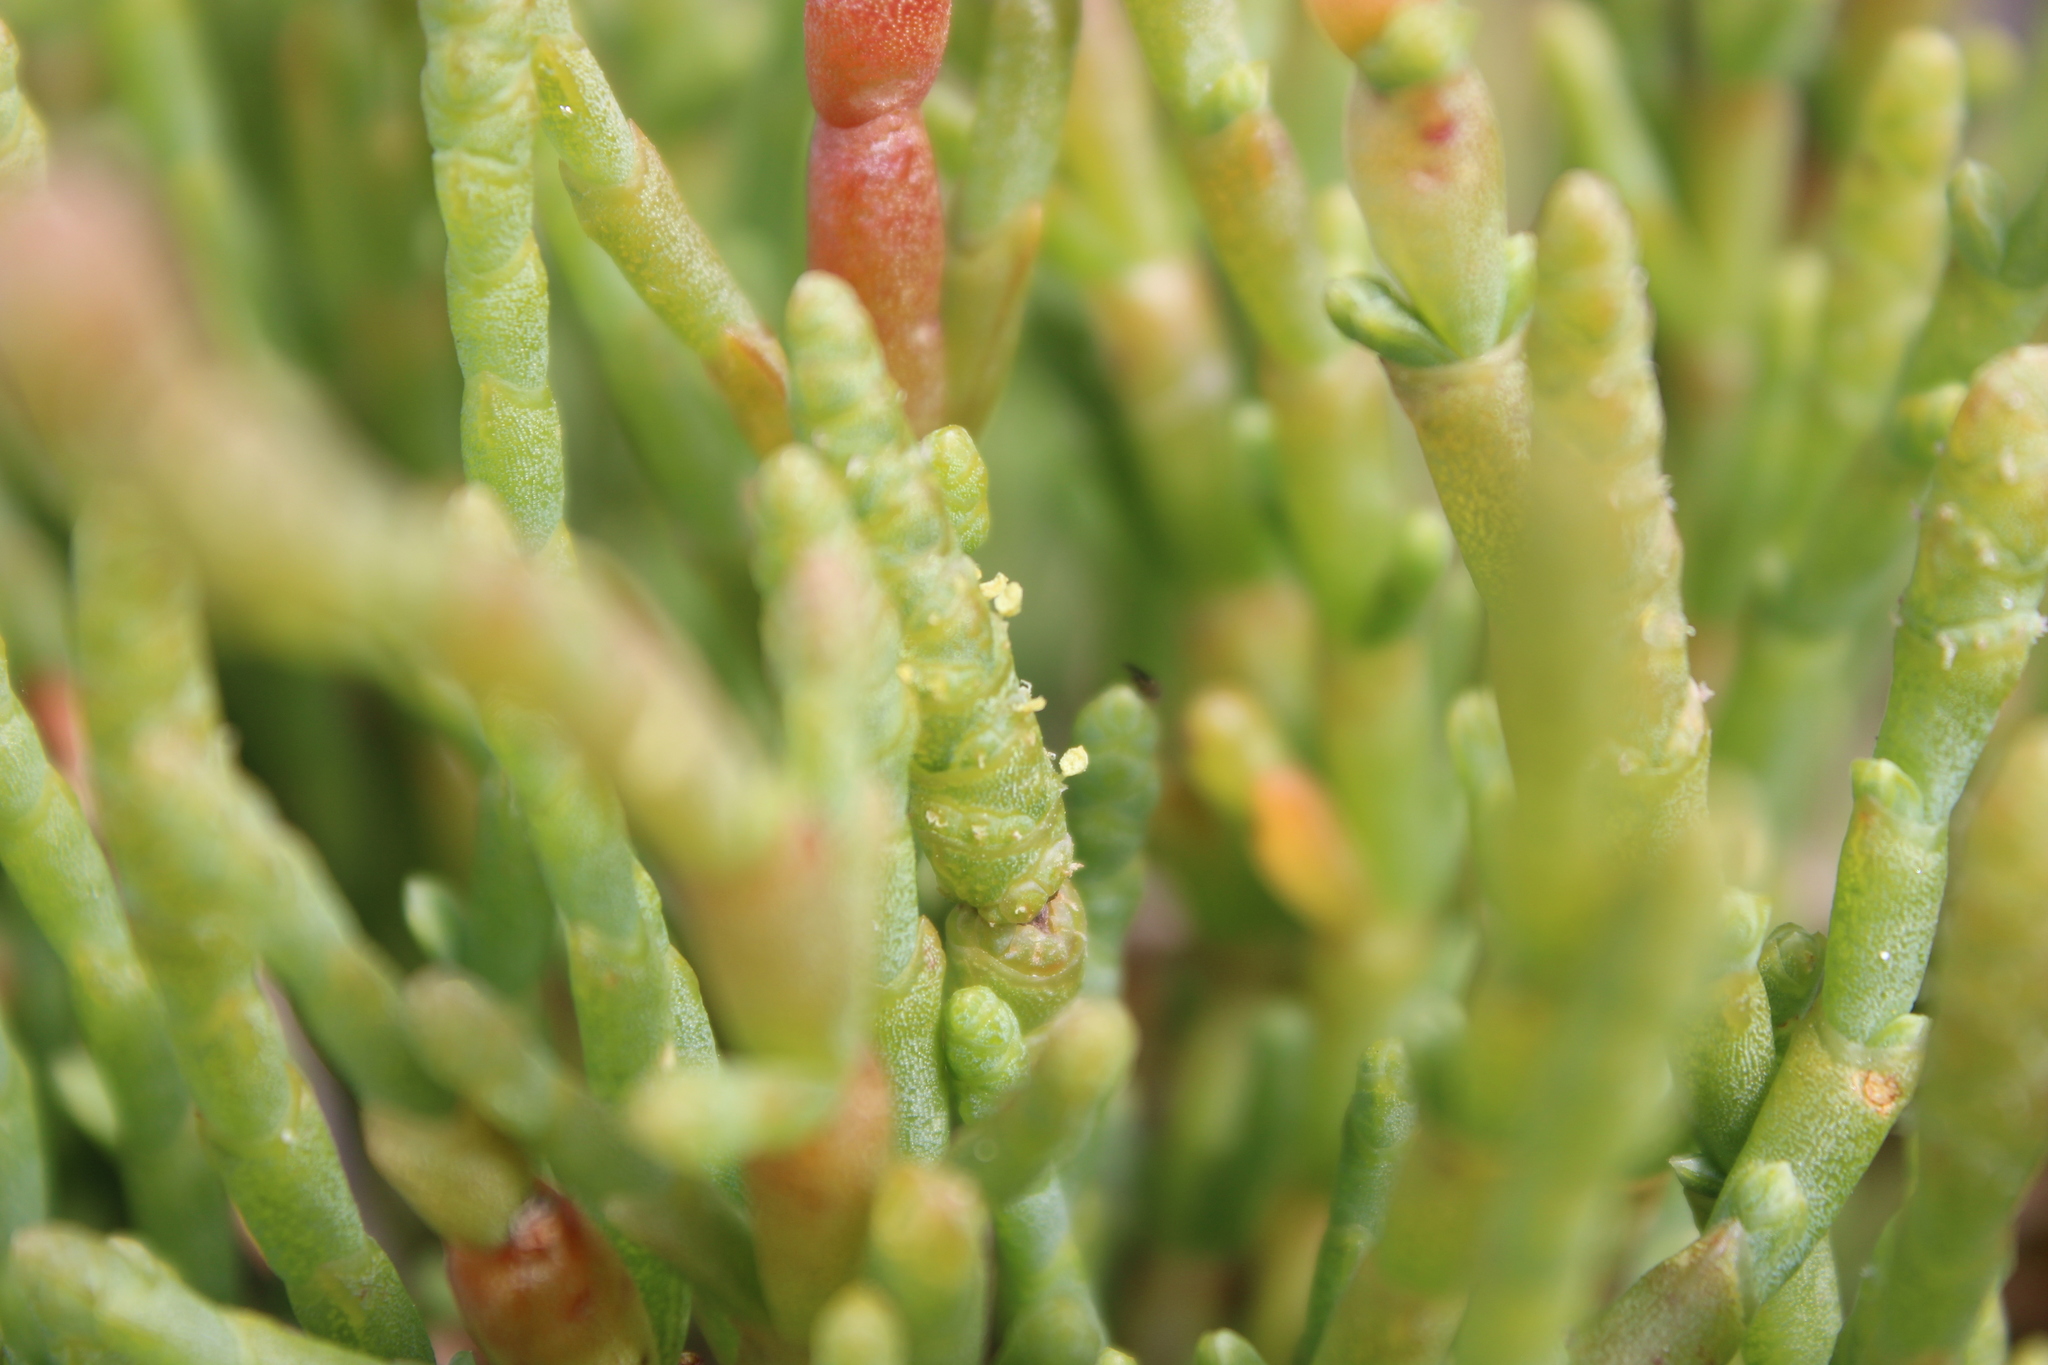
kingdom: Plantae
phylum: Tracheophyta
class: Magnoliopsida
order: Caryophyllales
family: Amaranthaceae
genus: Salicornia
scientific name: Salicornia quinqueflora
